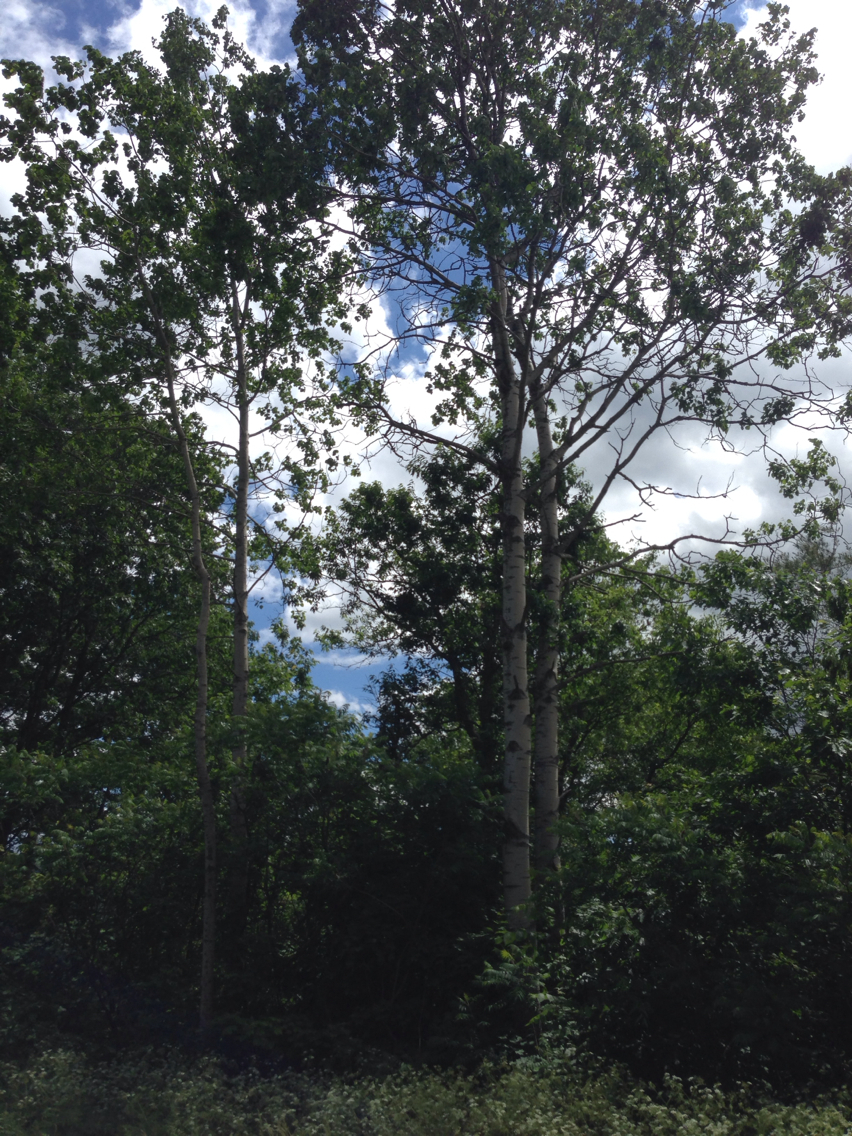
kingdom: Plantae
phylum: Tracheophyta
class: Magnoliopsida
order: Malpighiales
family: Salicaceae
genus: Populus
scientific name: Populus tremuloides
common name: Quaking aspen
